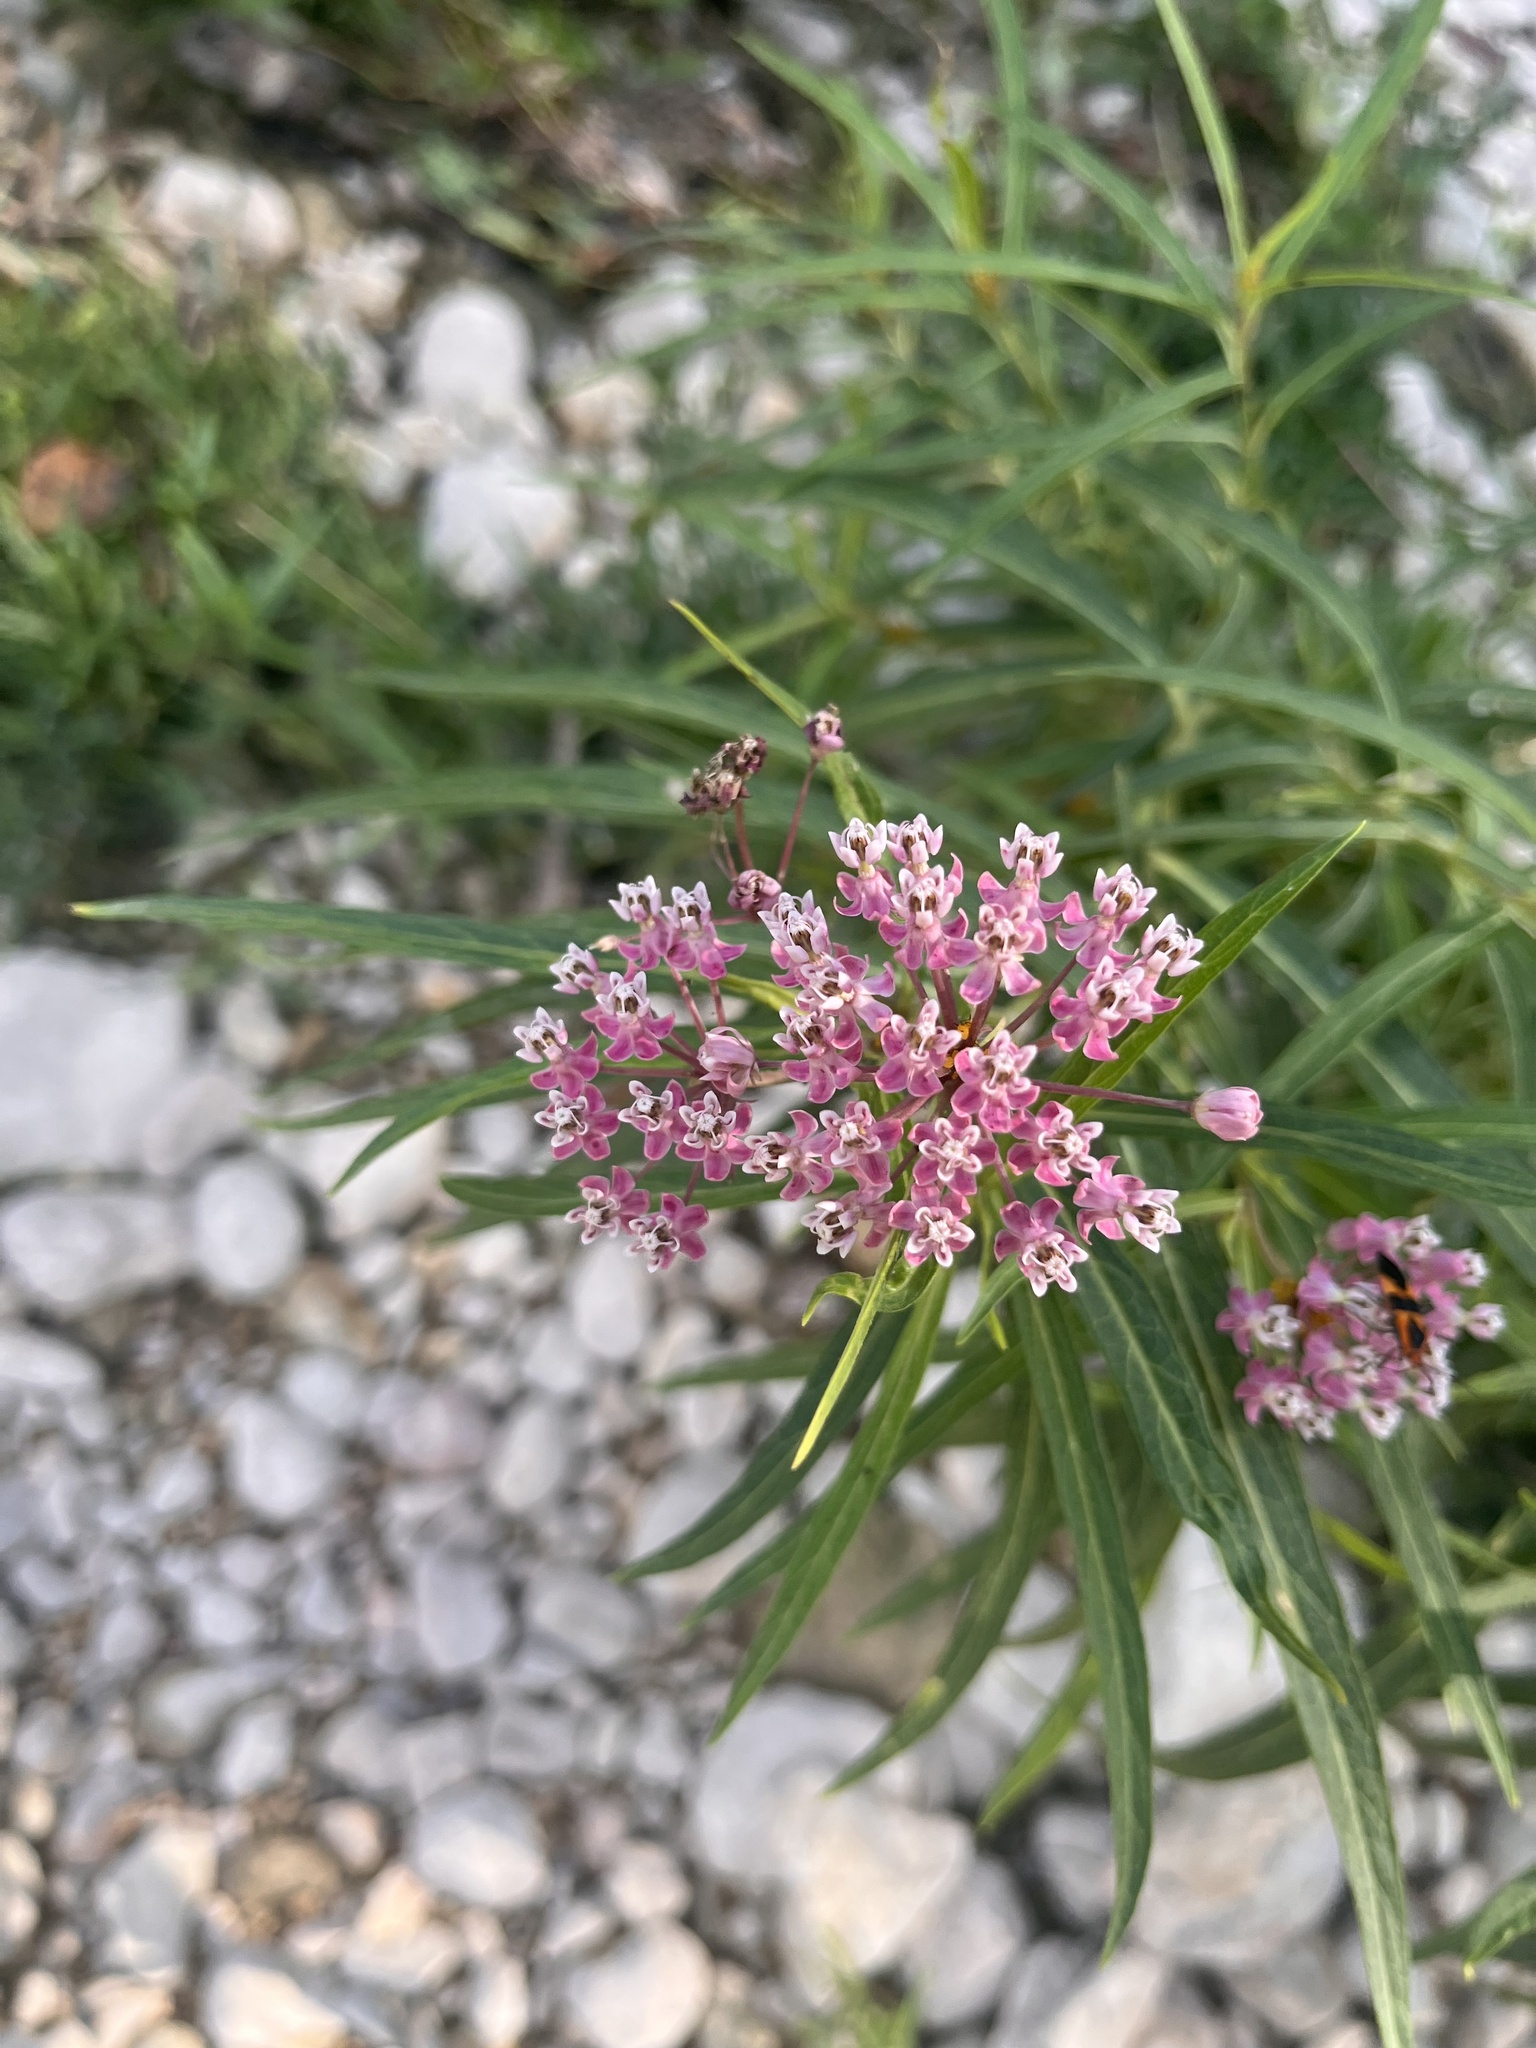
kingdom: Plantae
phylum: Tracheophyta
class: Magnoliopsida
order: Gentianales
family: Apocynaceae
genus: Asclepias
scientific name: Asclepias incarnata
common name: Swamp milkweed
